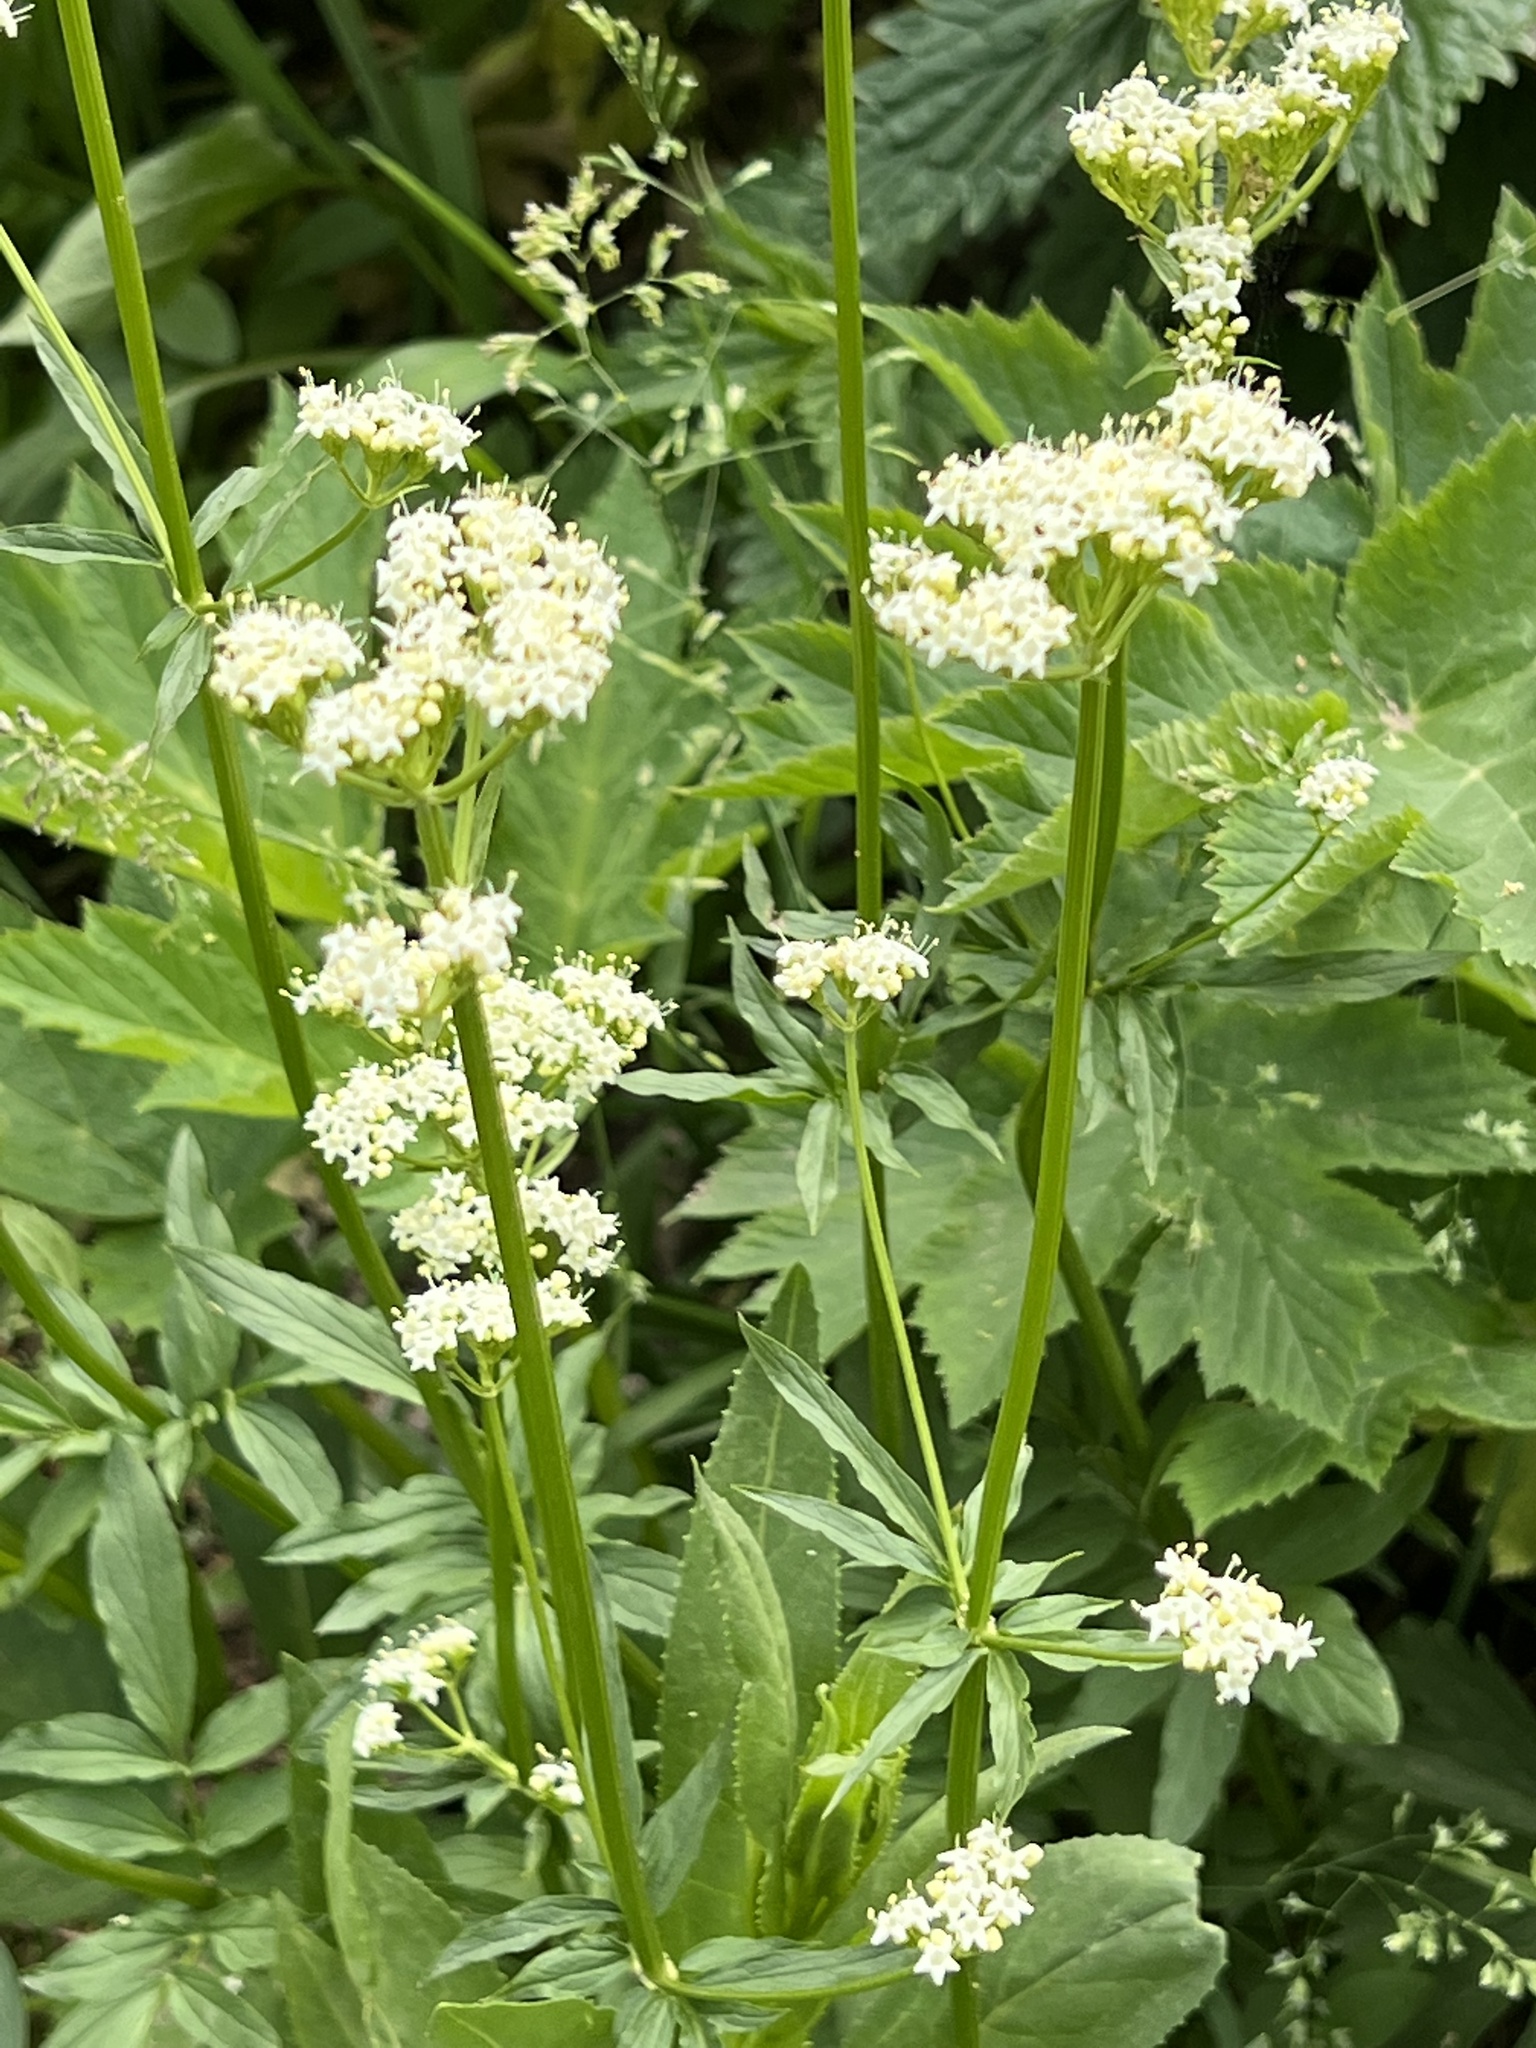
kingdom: Plantae
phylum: Tracheophyta
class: Magnoliopsida
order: Dipsacales
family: Caprifoliaceae
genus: Valeriana
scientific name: Valeriana occidentalis
